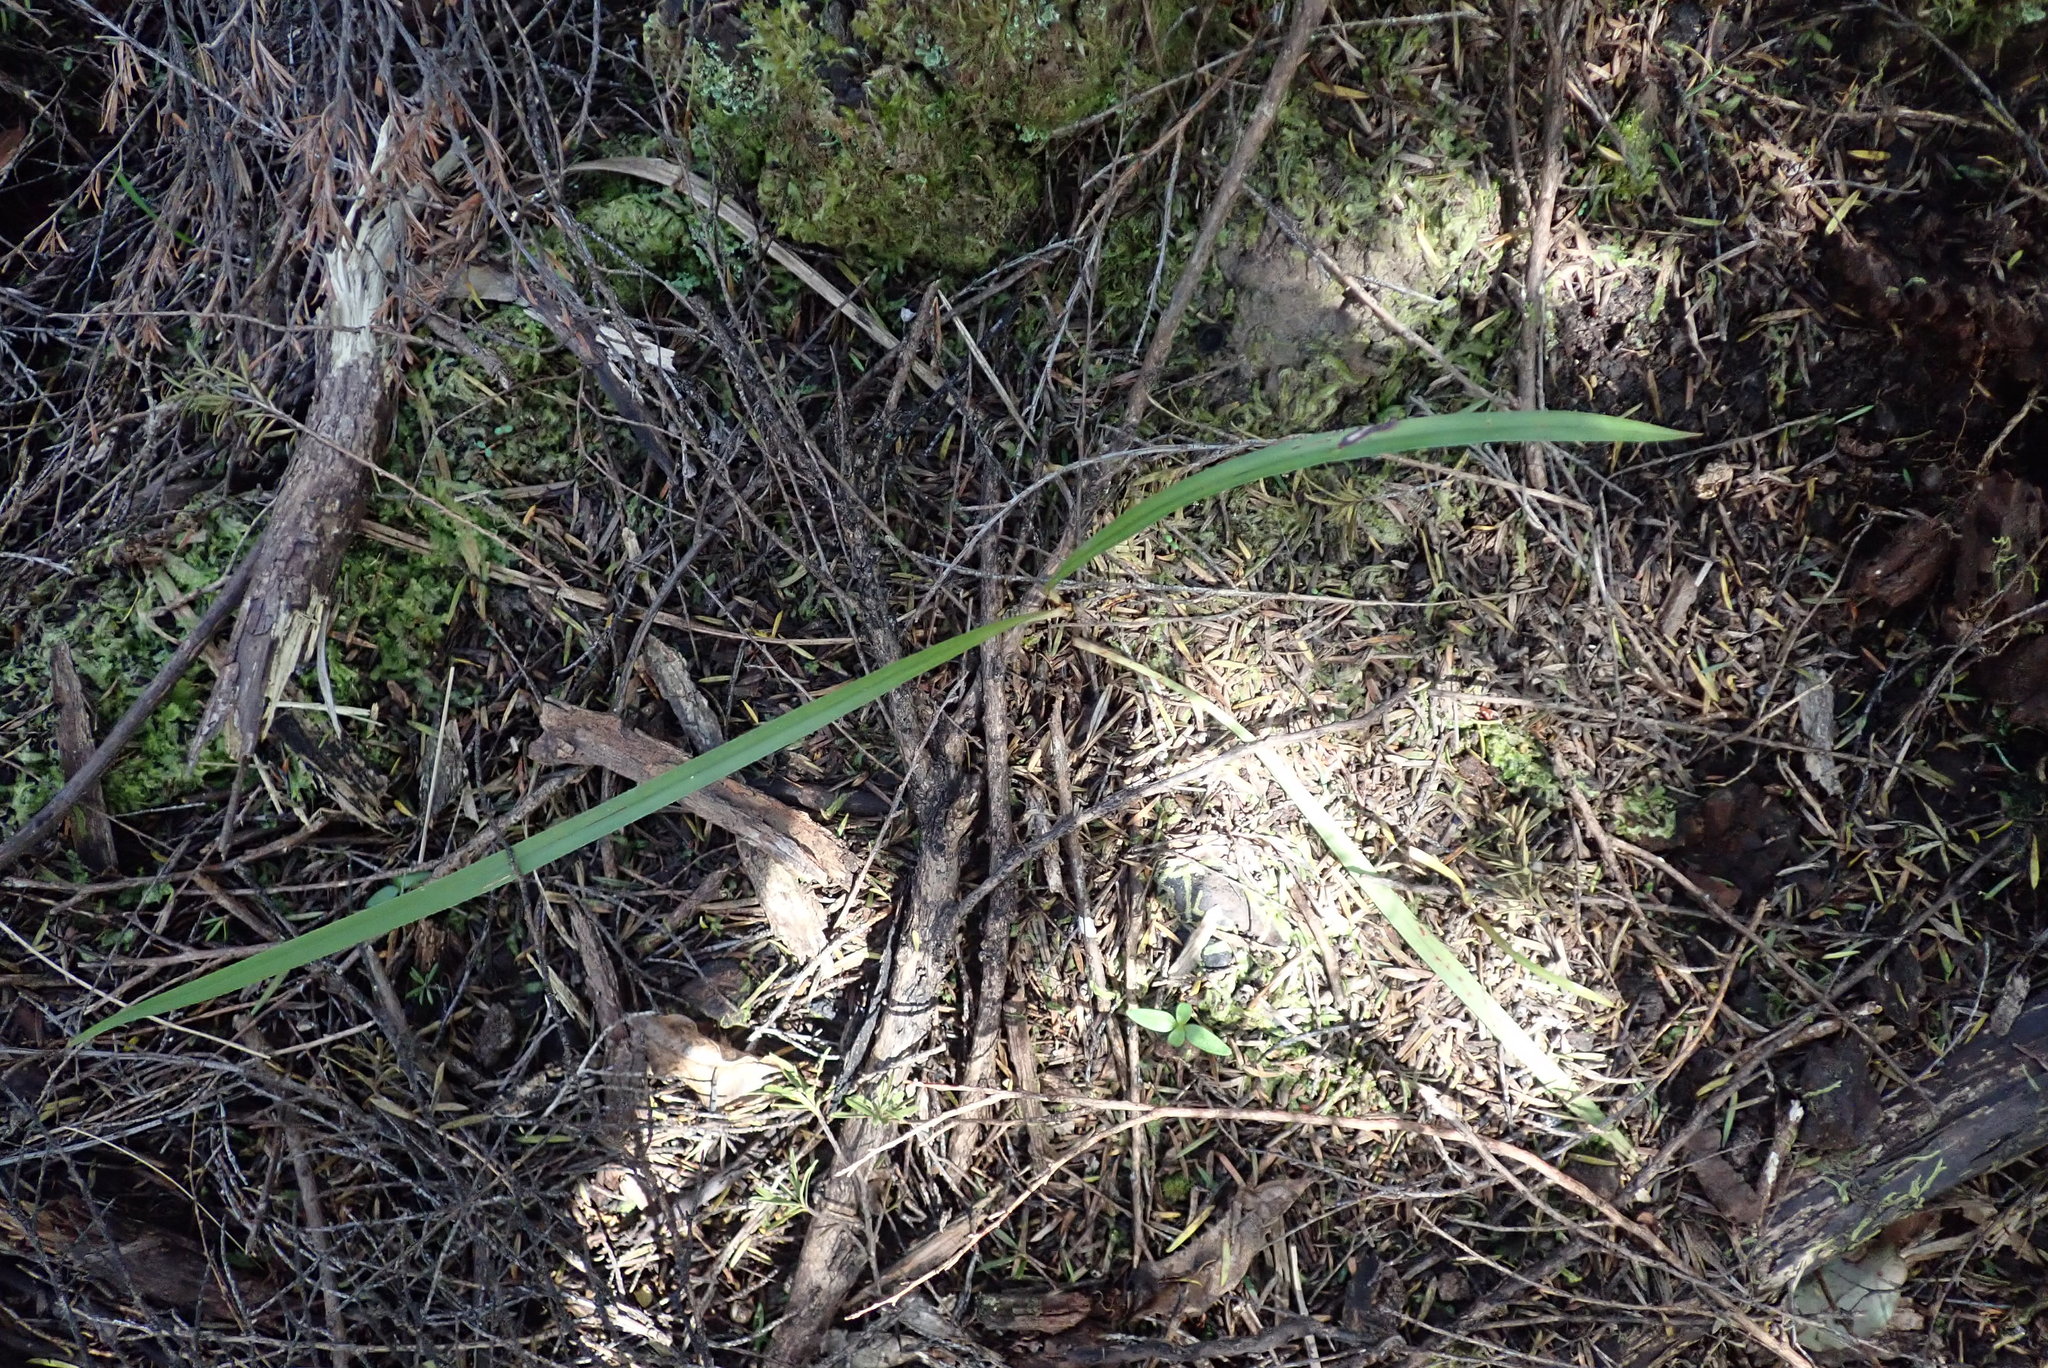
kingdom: Plantae
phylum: Tracheophyta
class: Liliopsida
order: Asparagales
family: Asphodelaceae
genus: Dianella
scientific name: Dianella nigra
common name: New zealand-blueberry
